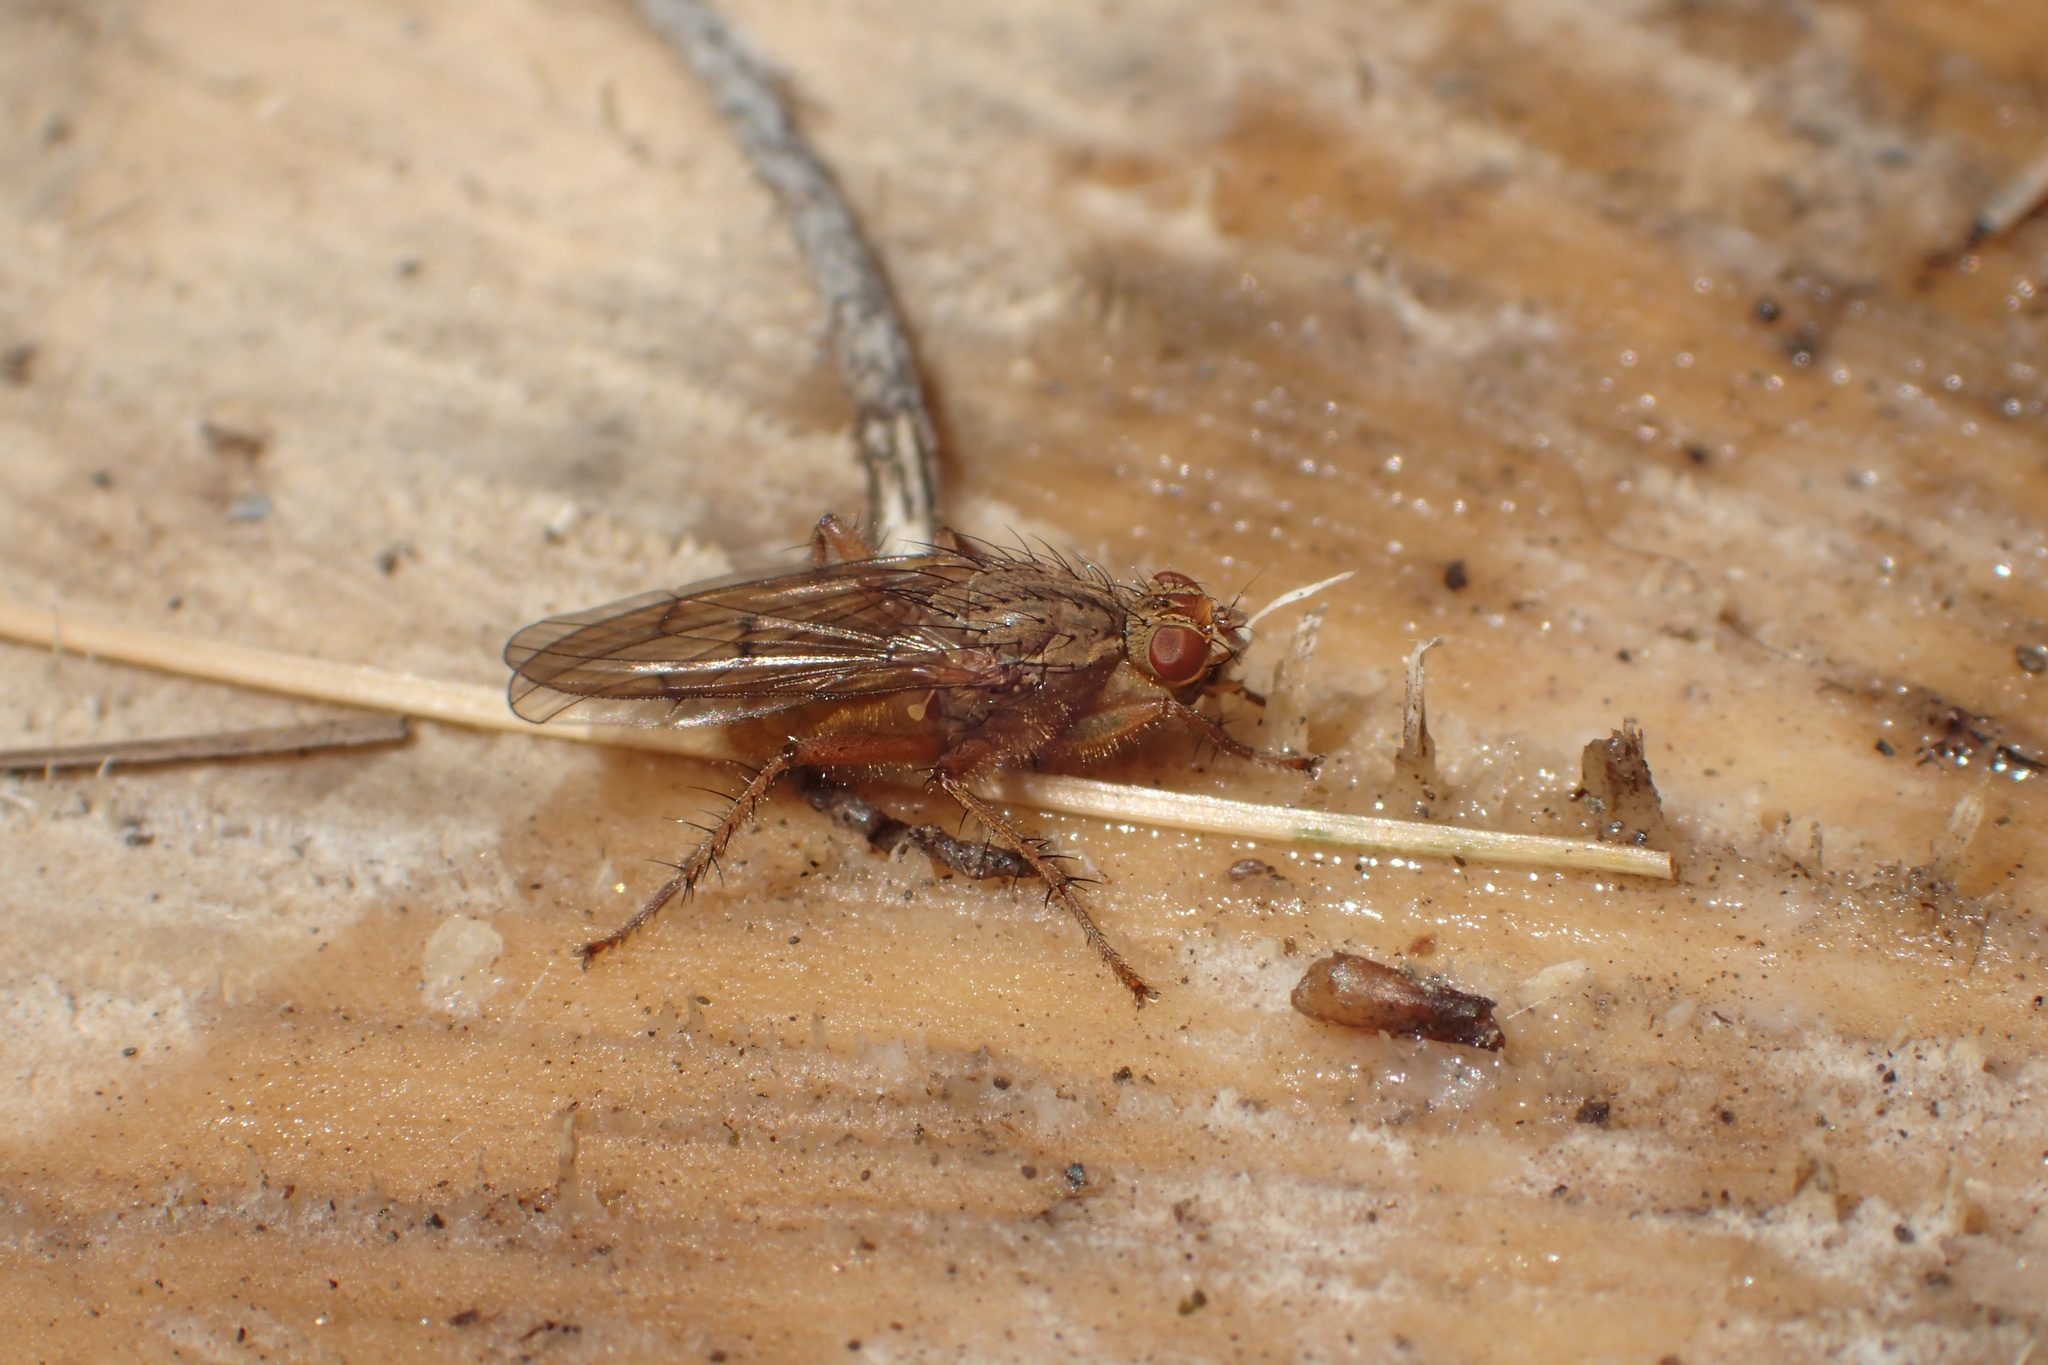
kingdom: Animalia
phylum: Arthropoda
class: Insecta
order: Diptera
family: Scathophagidae
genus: Scathophaga
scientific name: Scathophaga furcata
